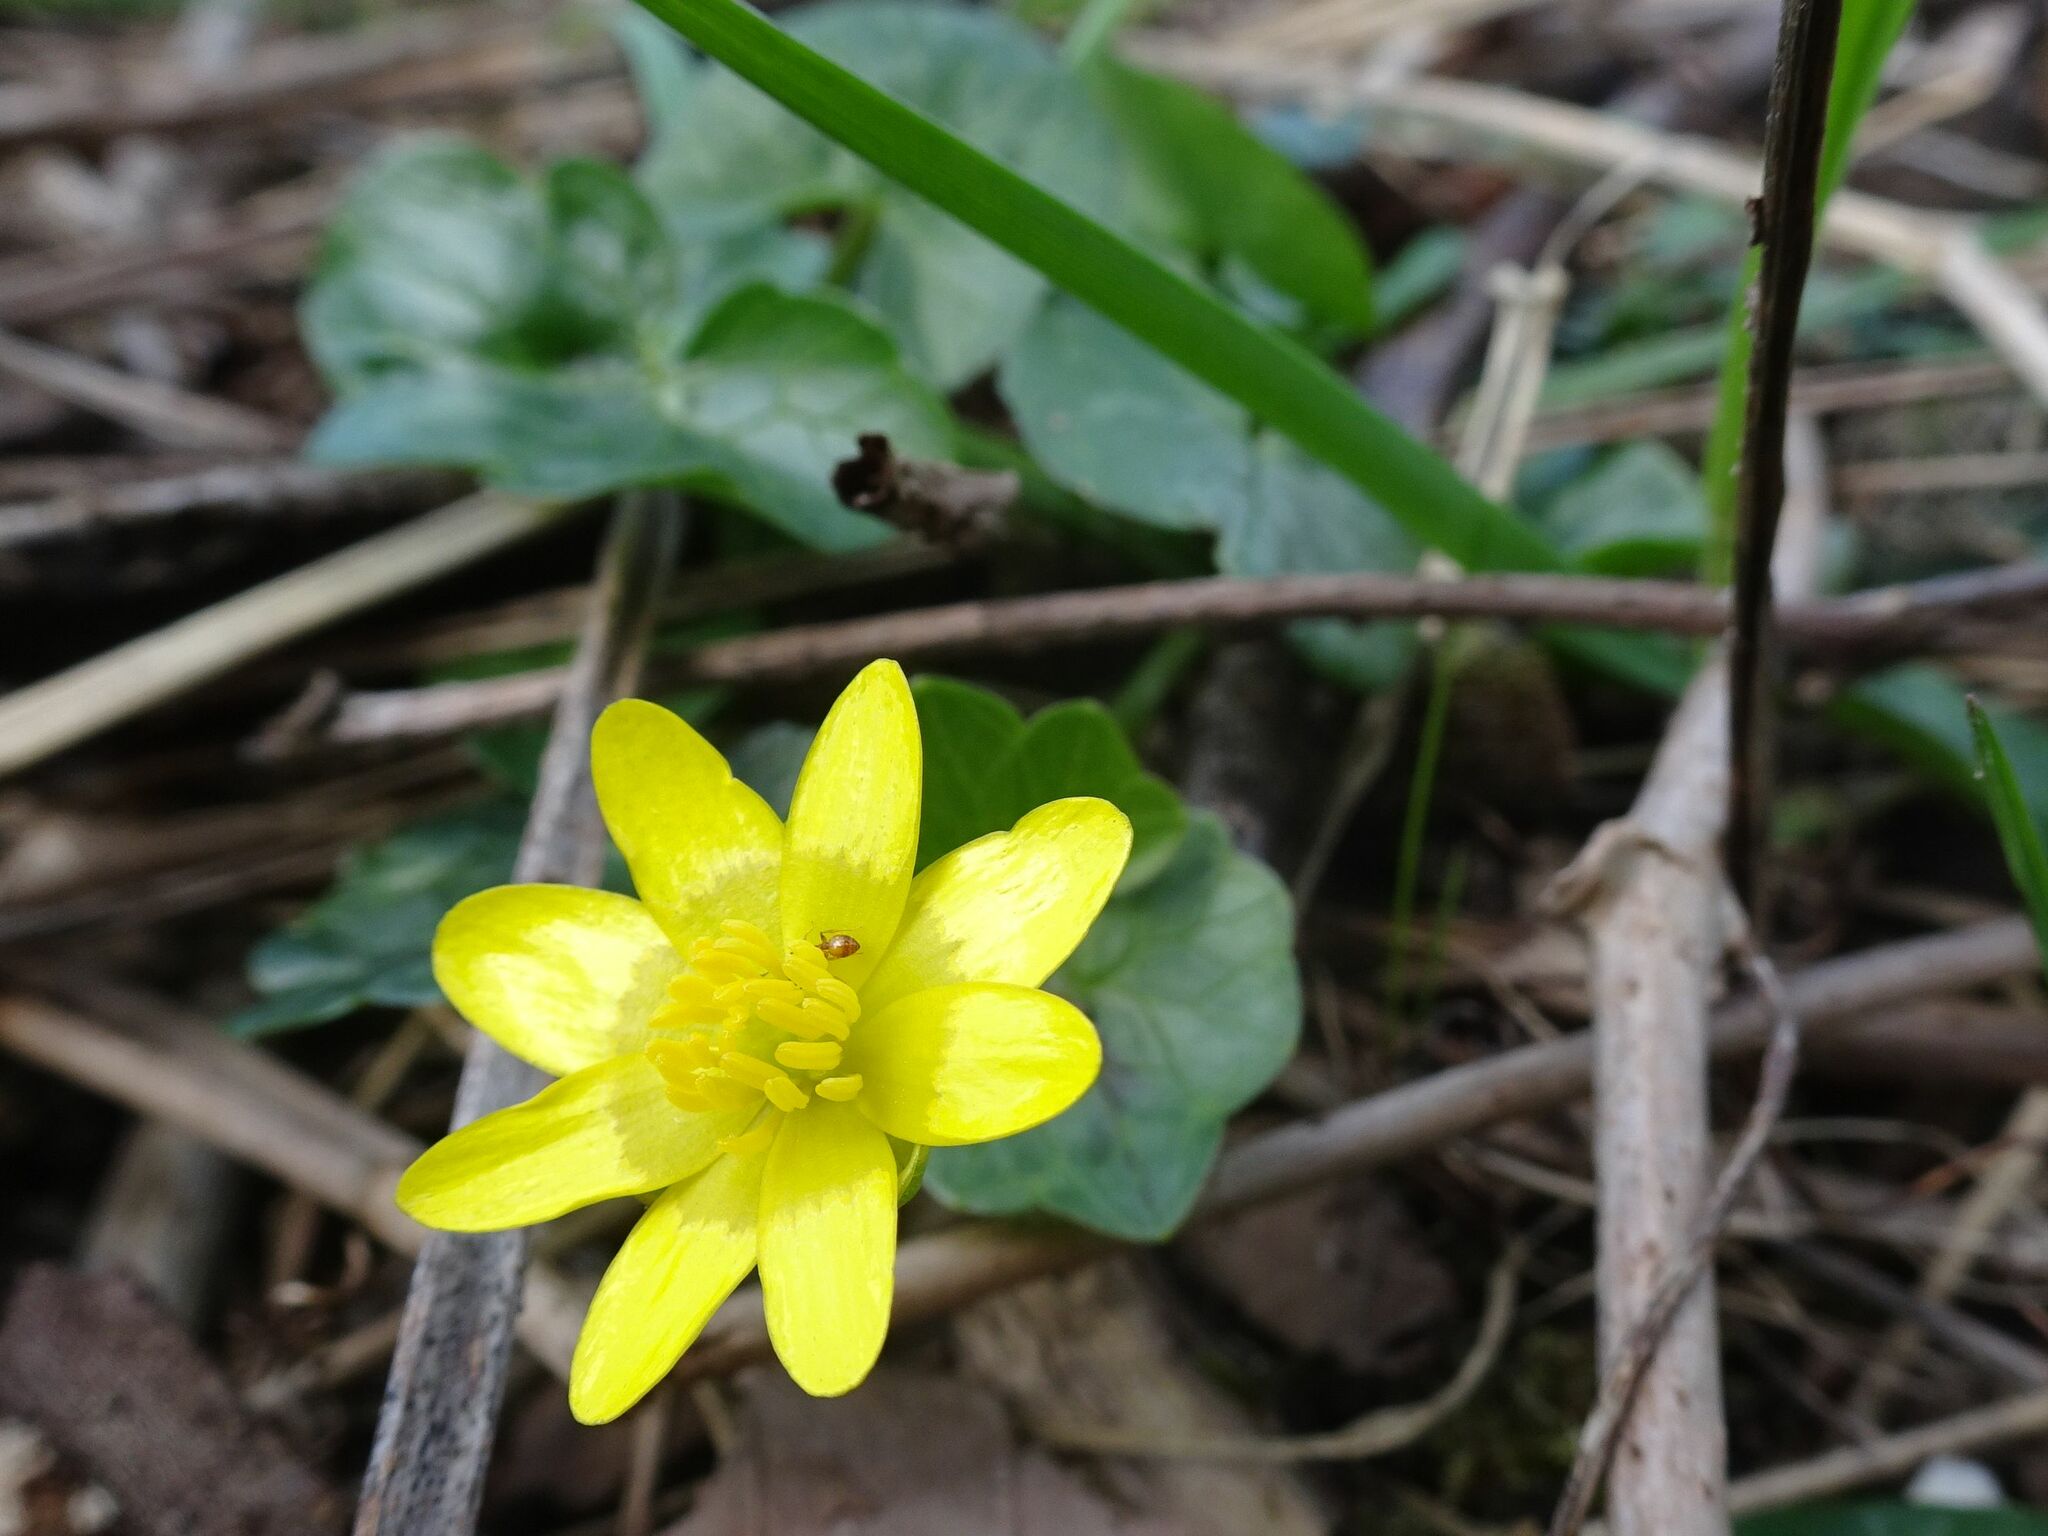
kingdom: Plantae
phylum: Tracheophyta
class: Magnoliopsida
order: Ranunculales
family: Ranunculaceae
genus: Ficaria
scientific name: Ficaria verna
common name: Lesser celandine
